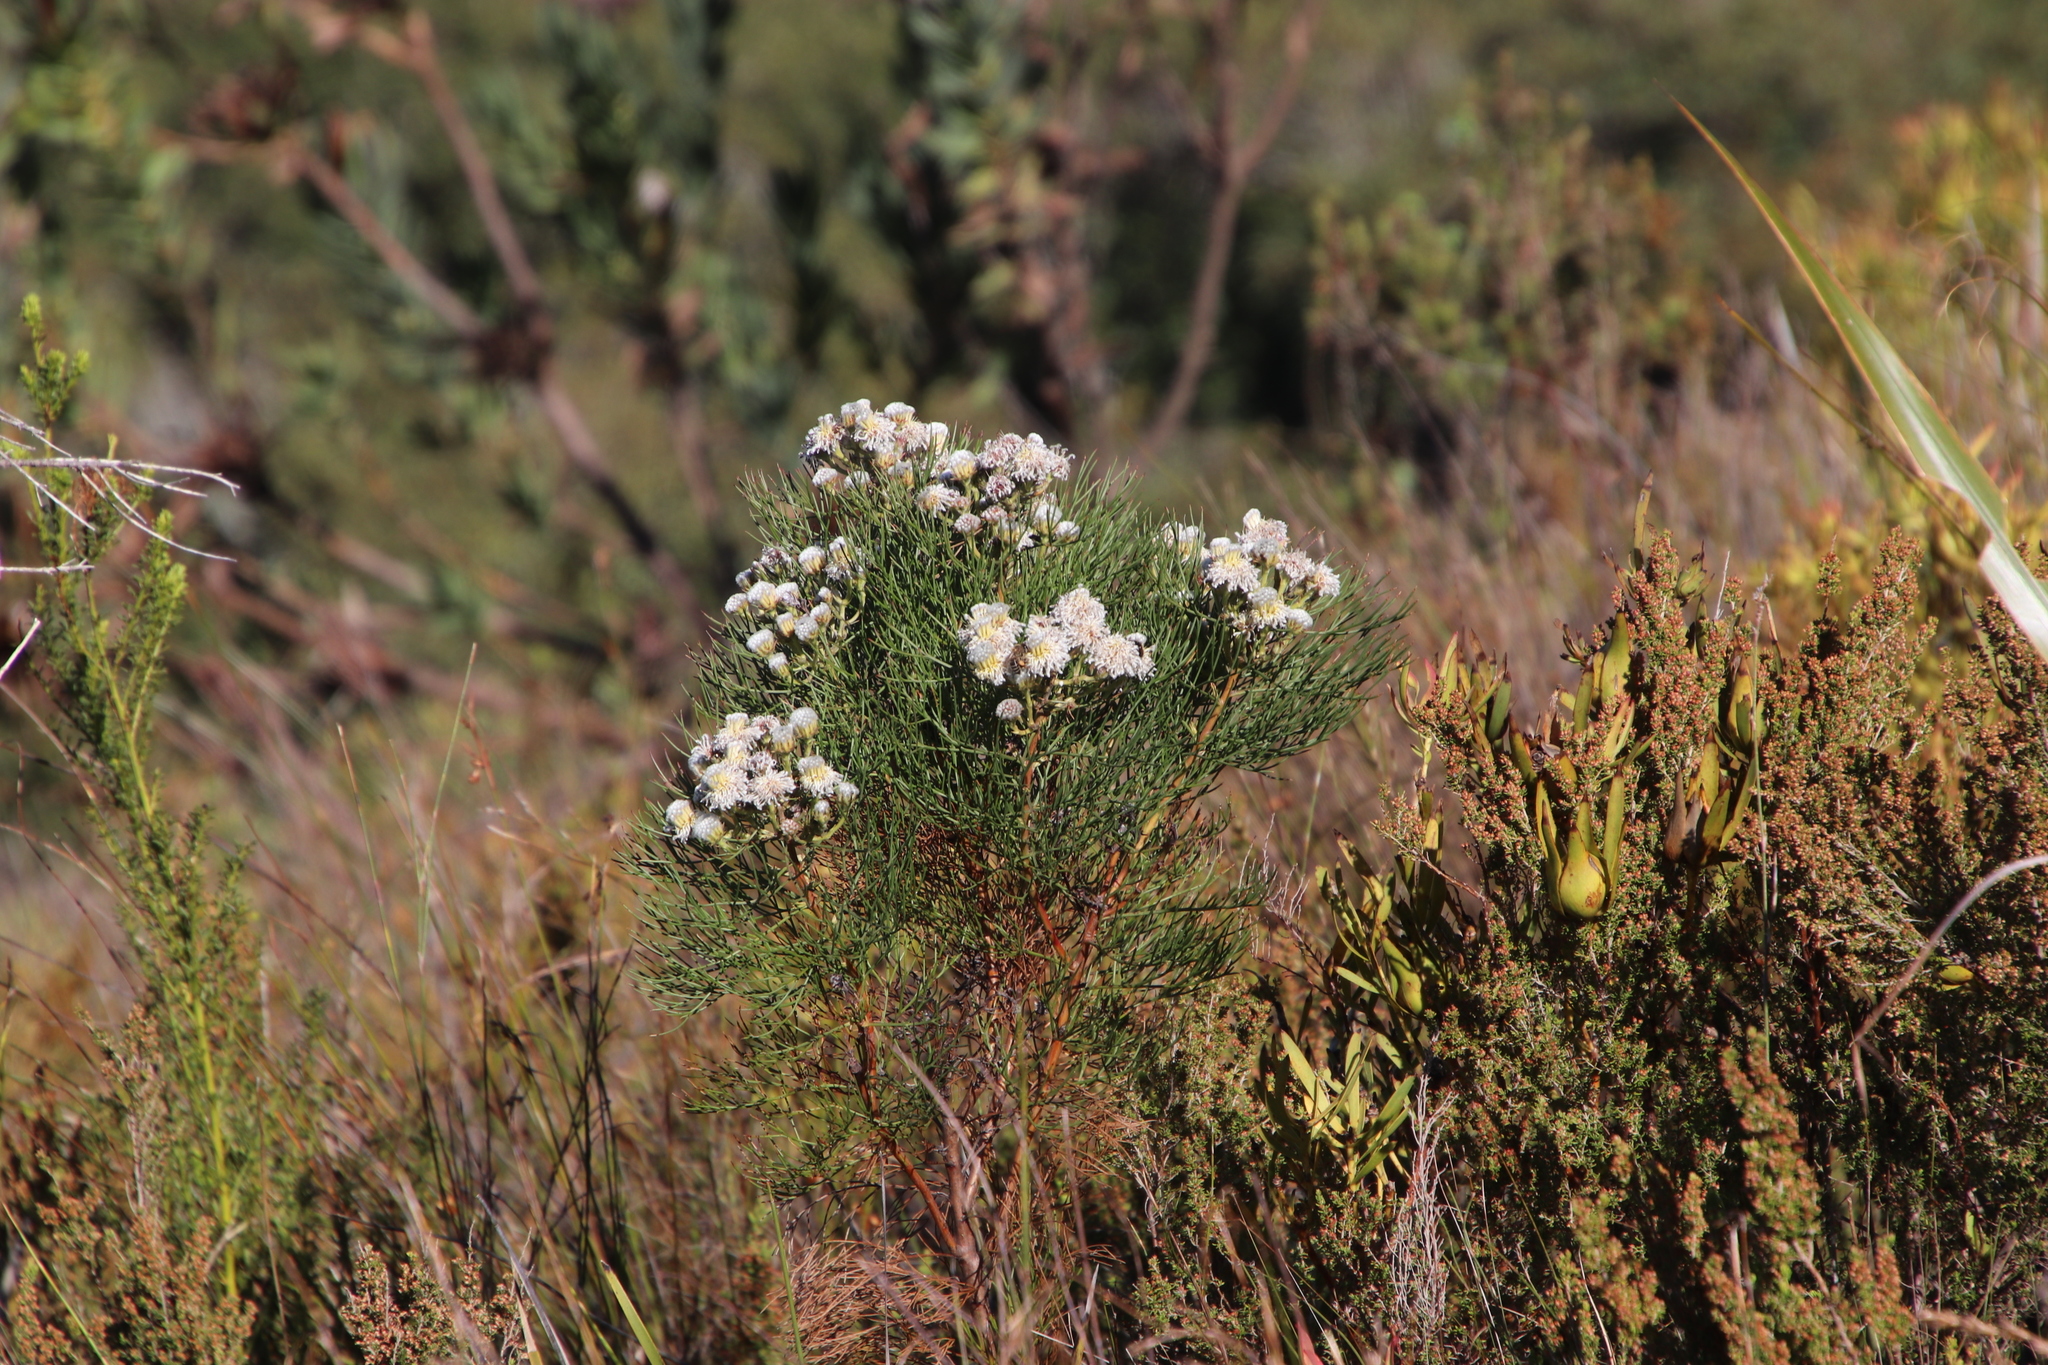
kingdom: Plantae
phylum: Tracheophyta
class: Magnoliopsida
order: Proteales
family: Proteaceae
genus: Serruria
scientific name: Serruria kraussii
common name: Snowball spiderhead
